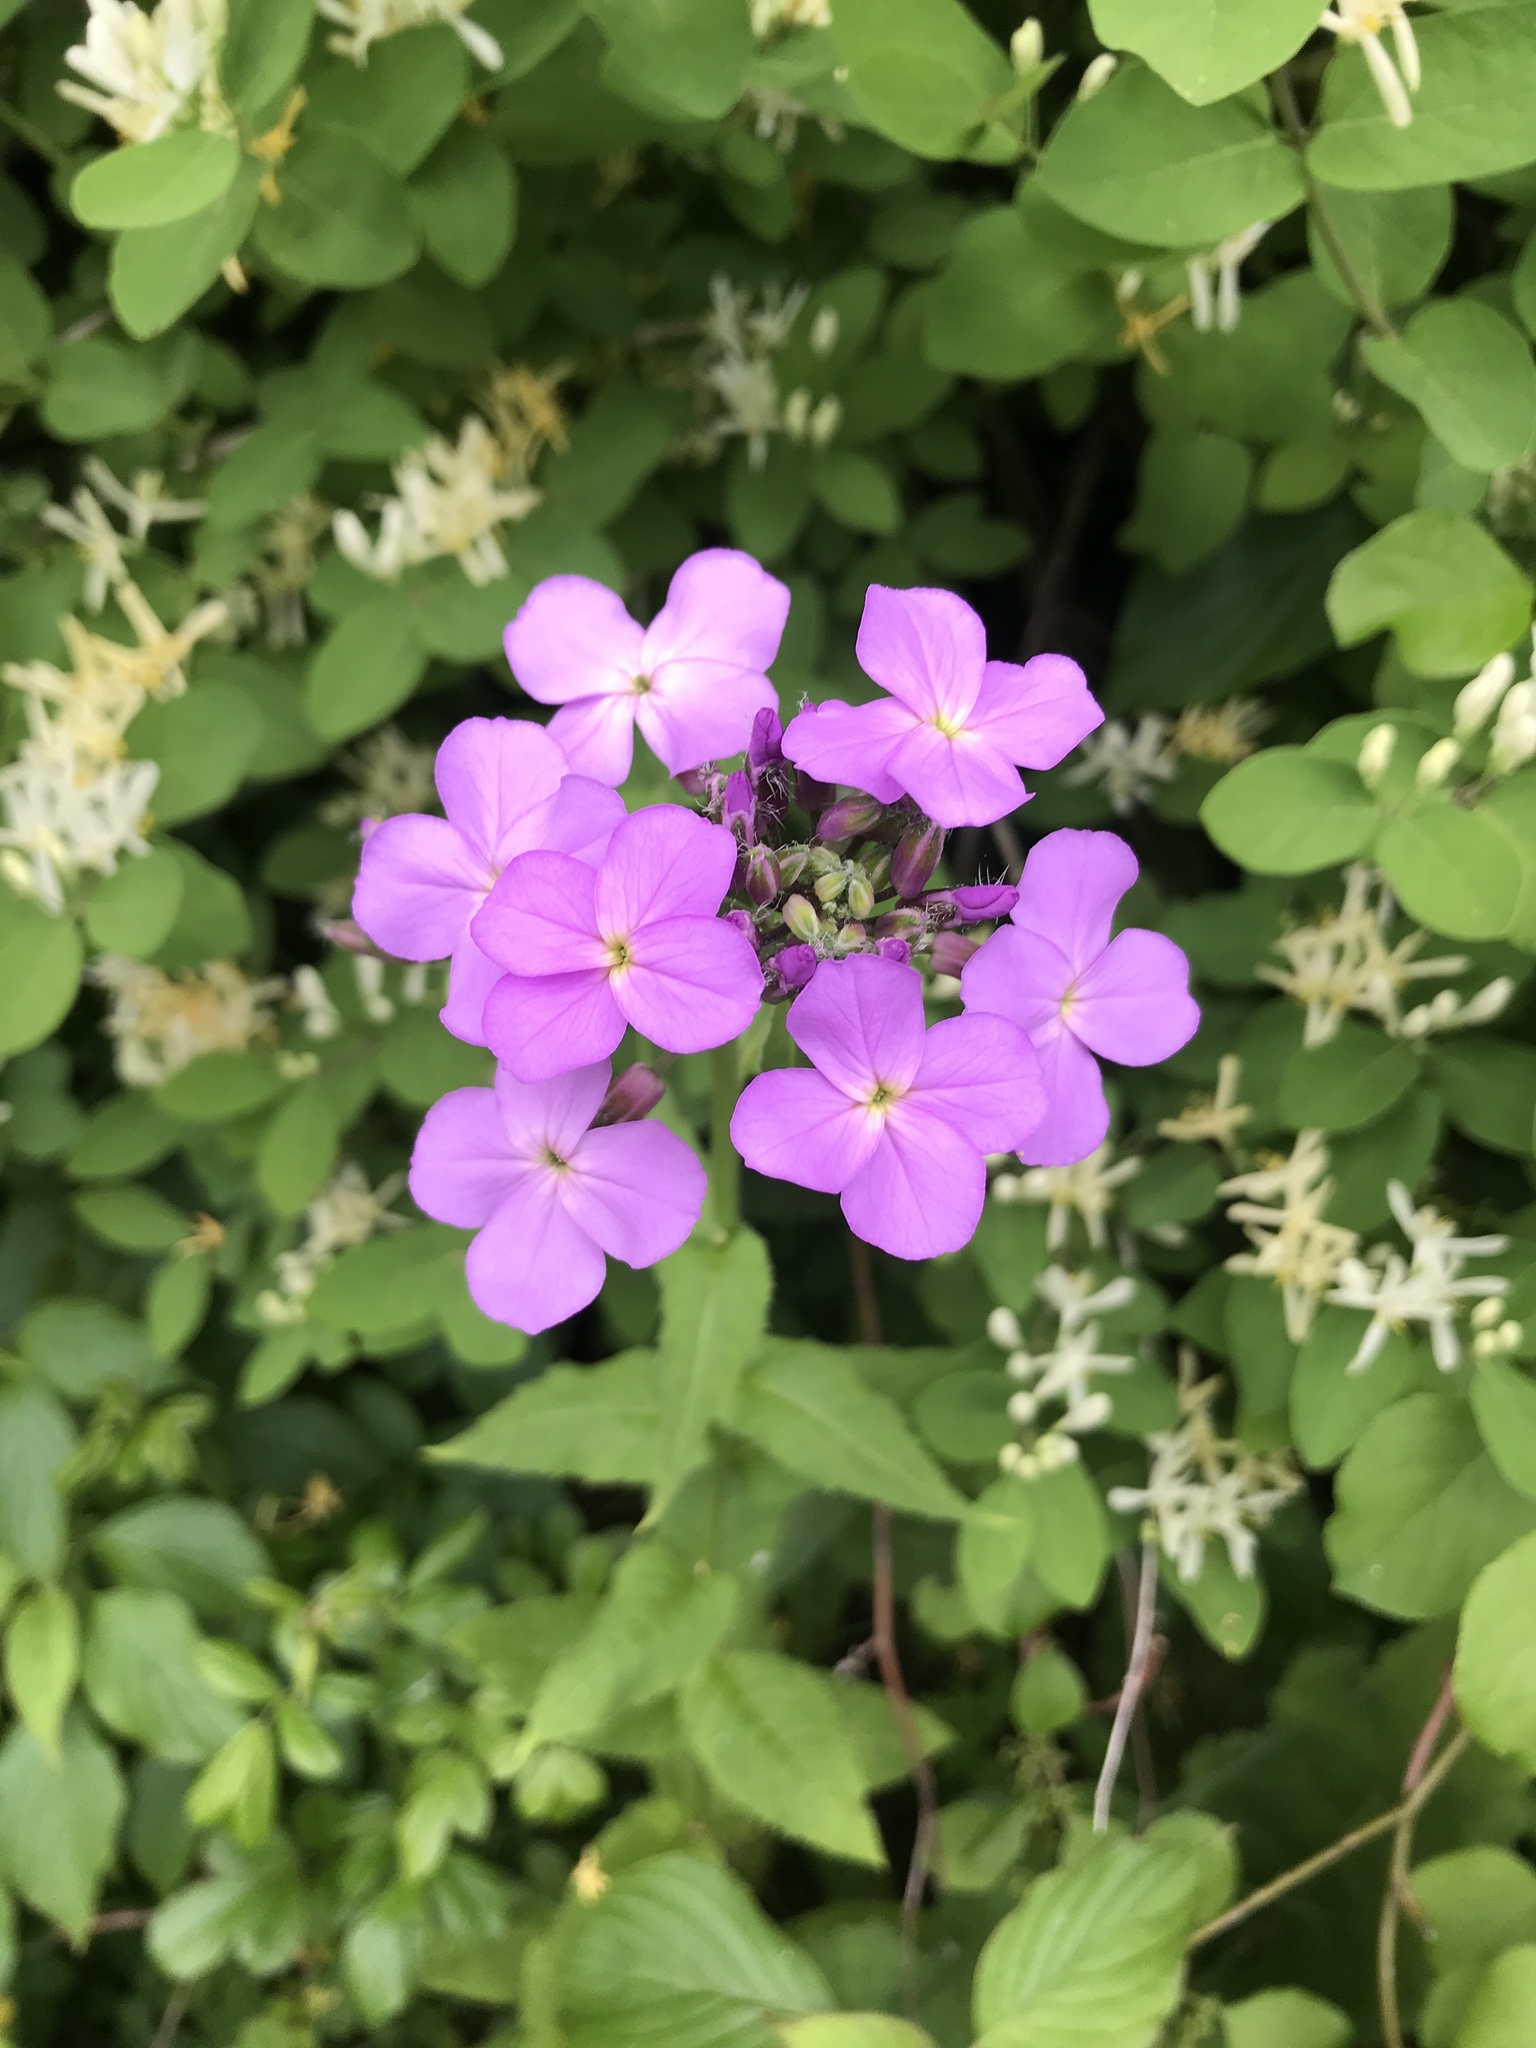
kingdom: Plantae
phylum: Tracheophyta
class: Magnoliopsida
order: Brassicales
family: Brassicaceae
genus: Hesperis
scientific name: Hesperis matronalis
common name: Dame's-violet
